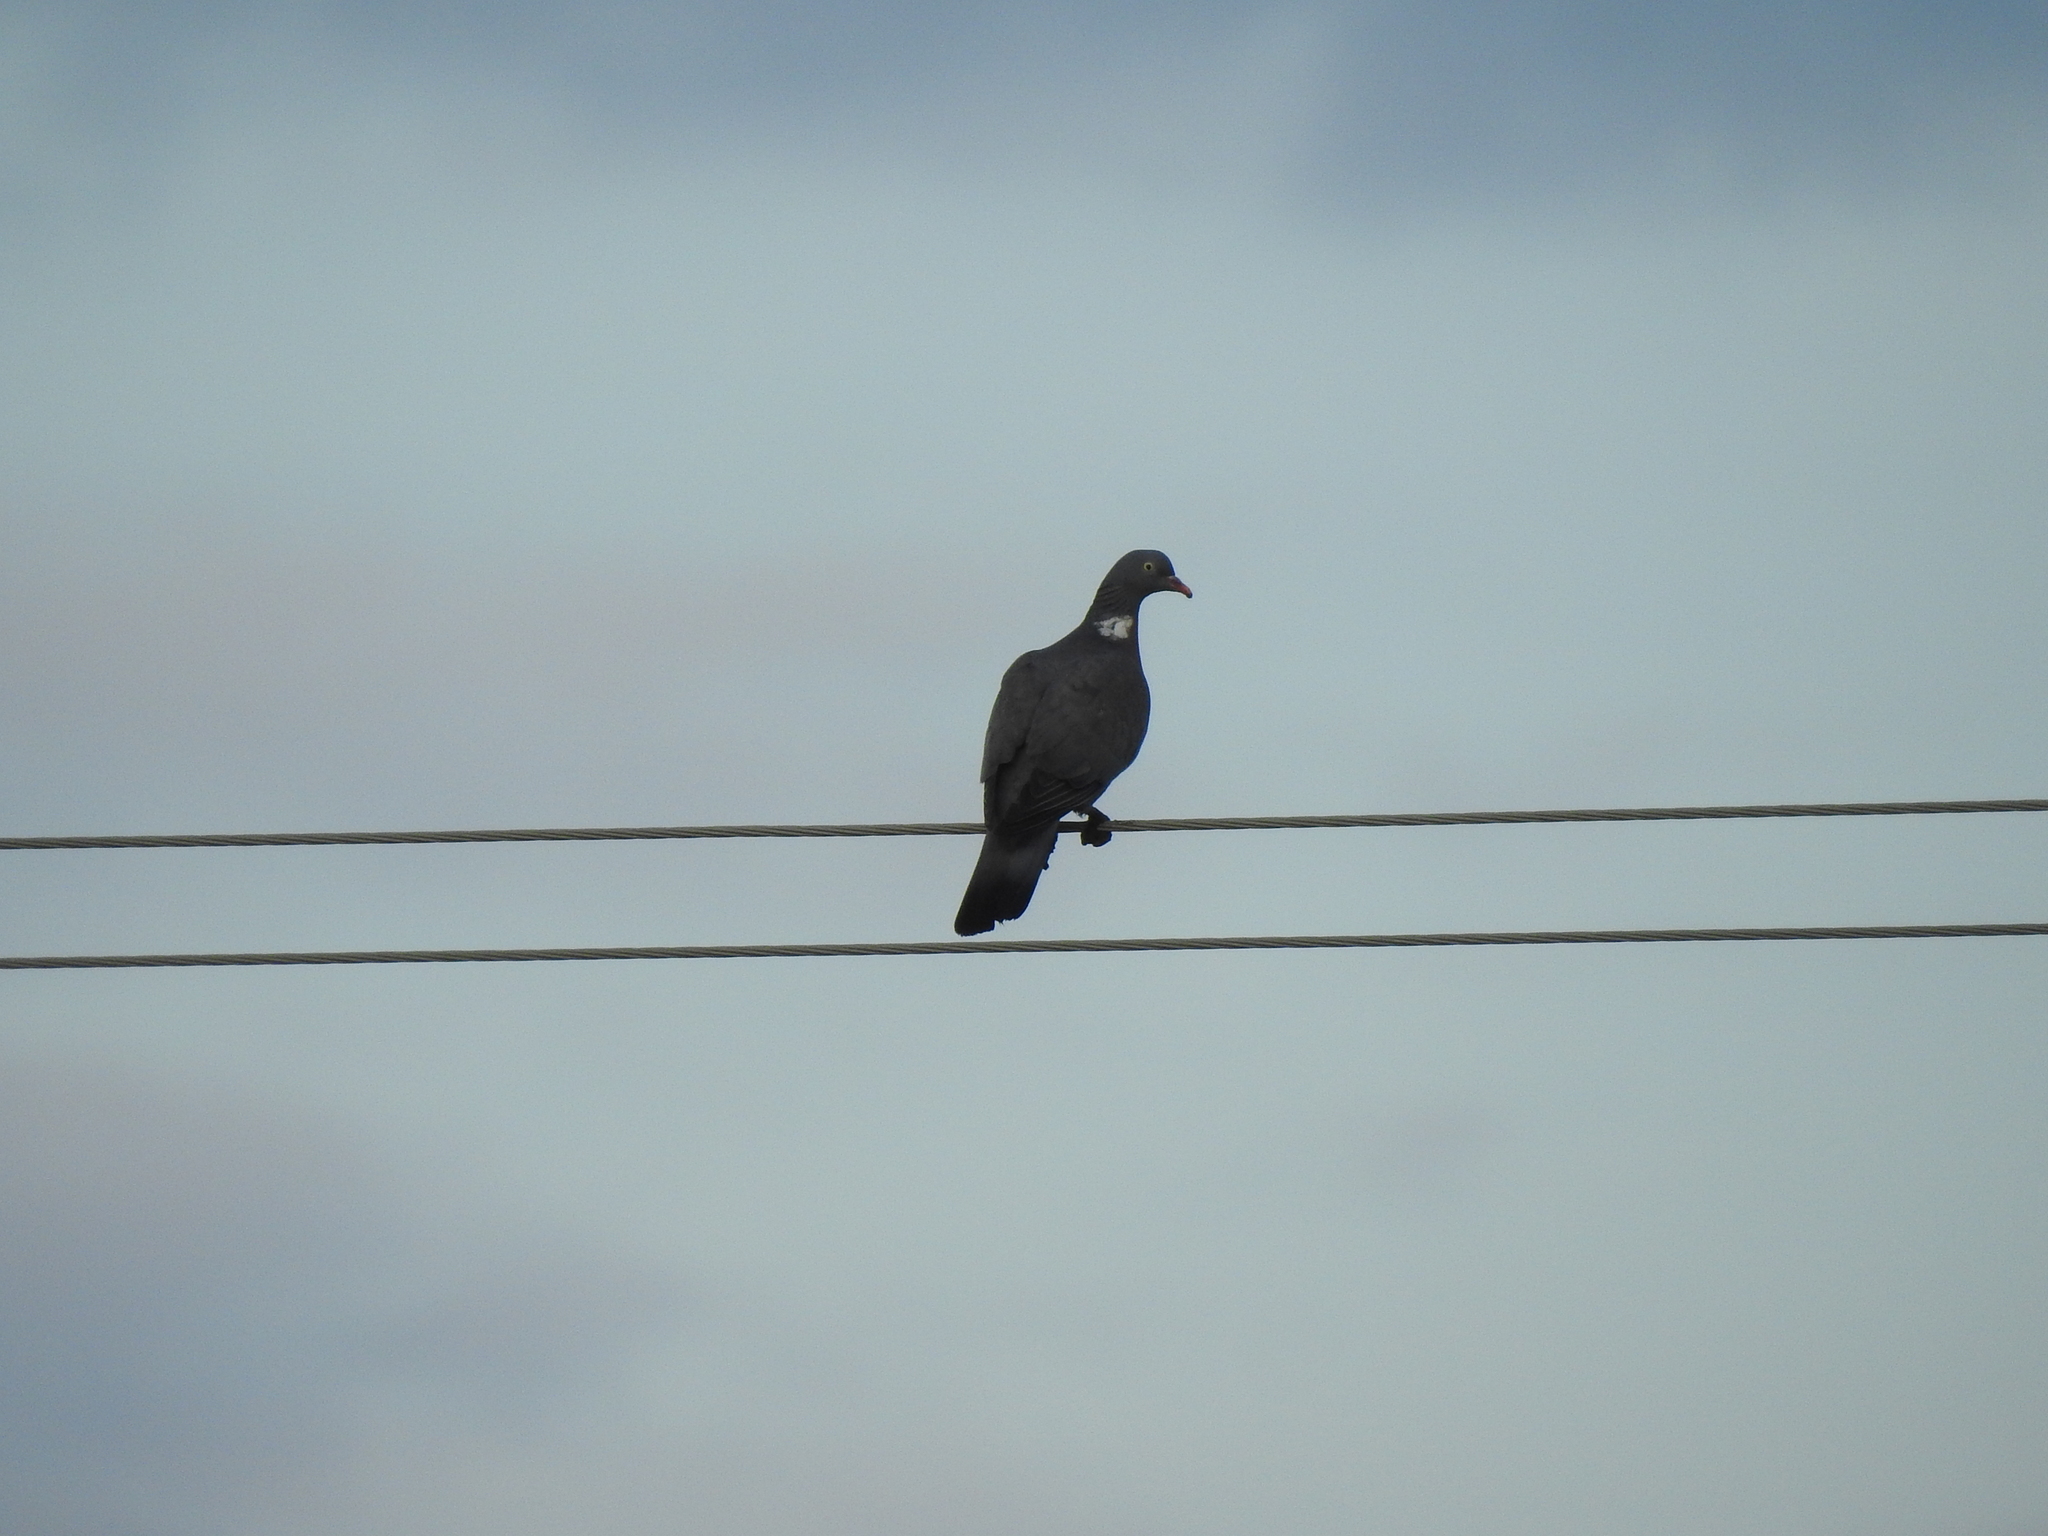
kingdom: Animalia
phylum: Chordata
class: Aves
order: Columbiformes
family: Columbidae
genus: Columba
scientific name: Columba palumbus
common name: Common wood pigeon
